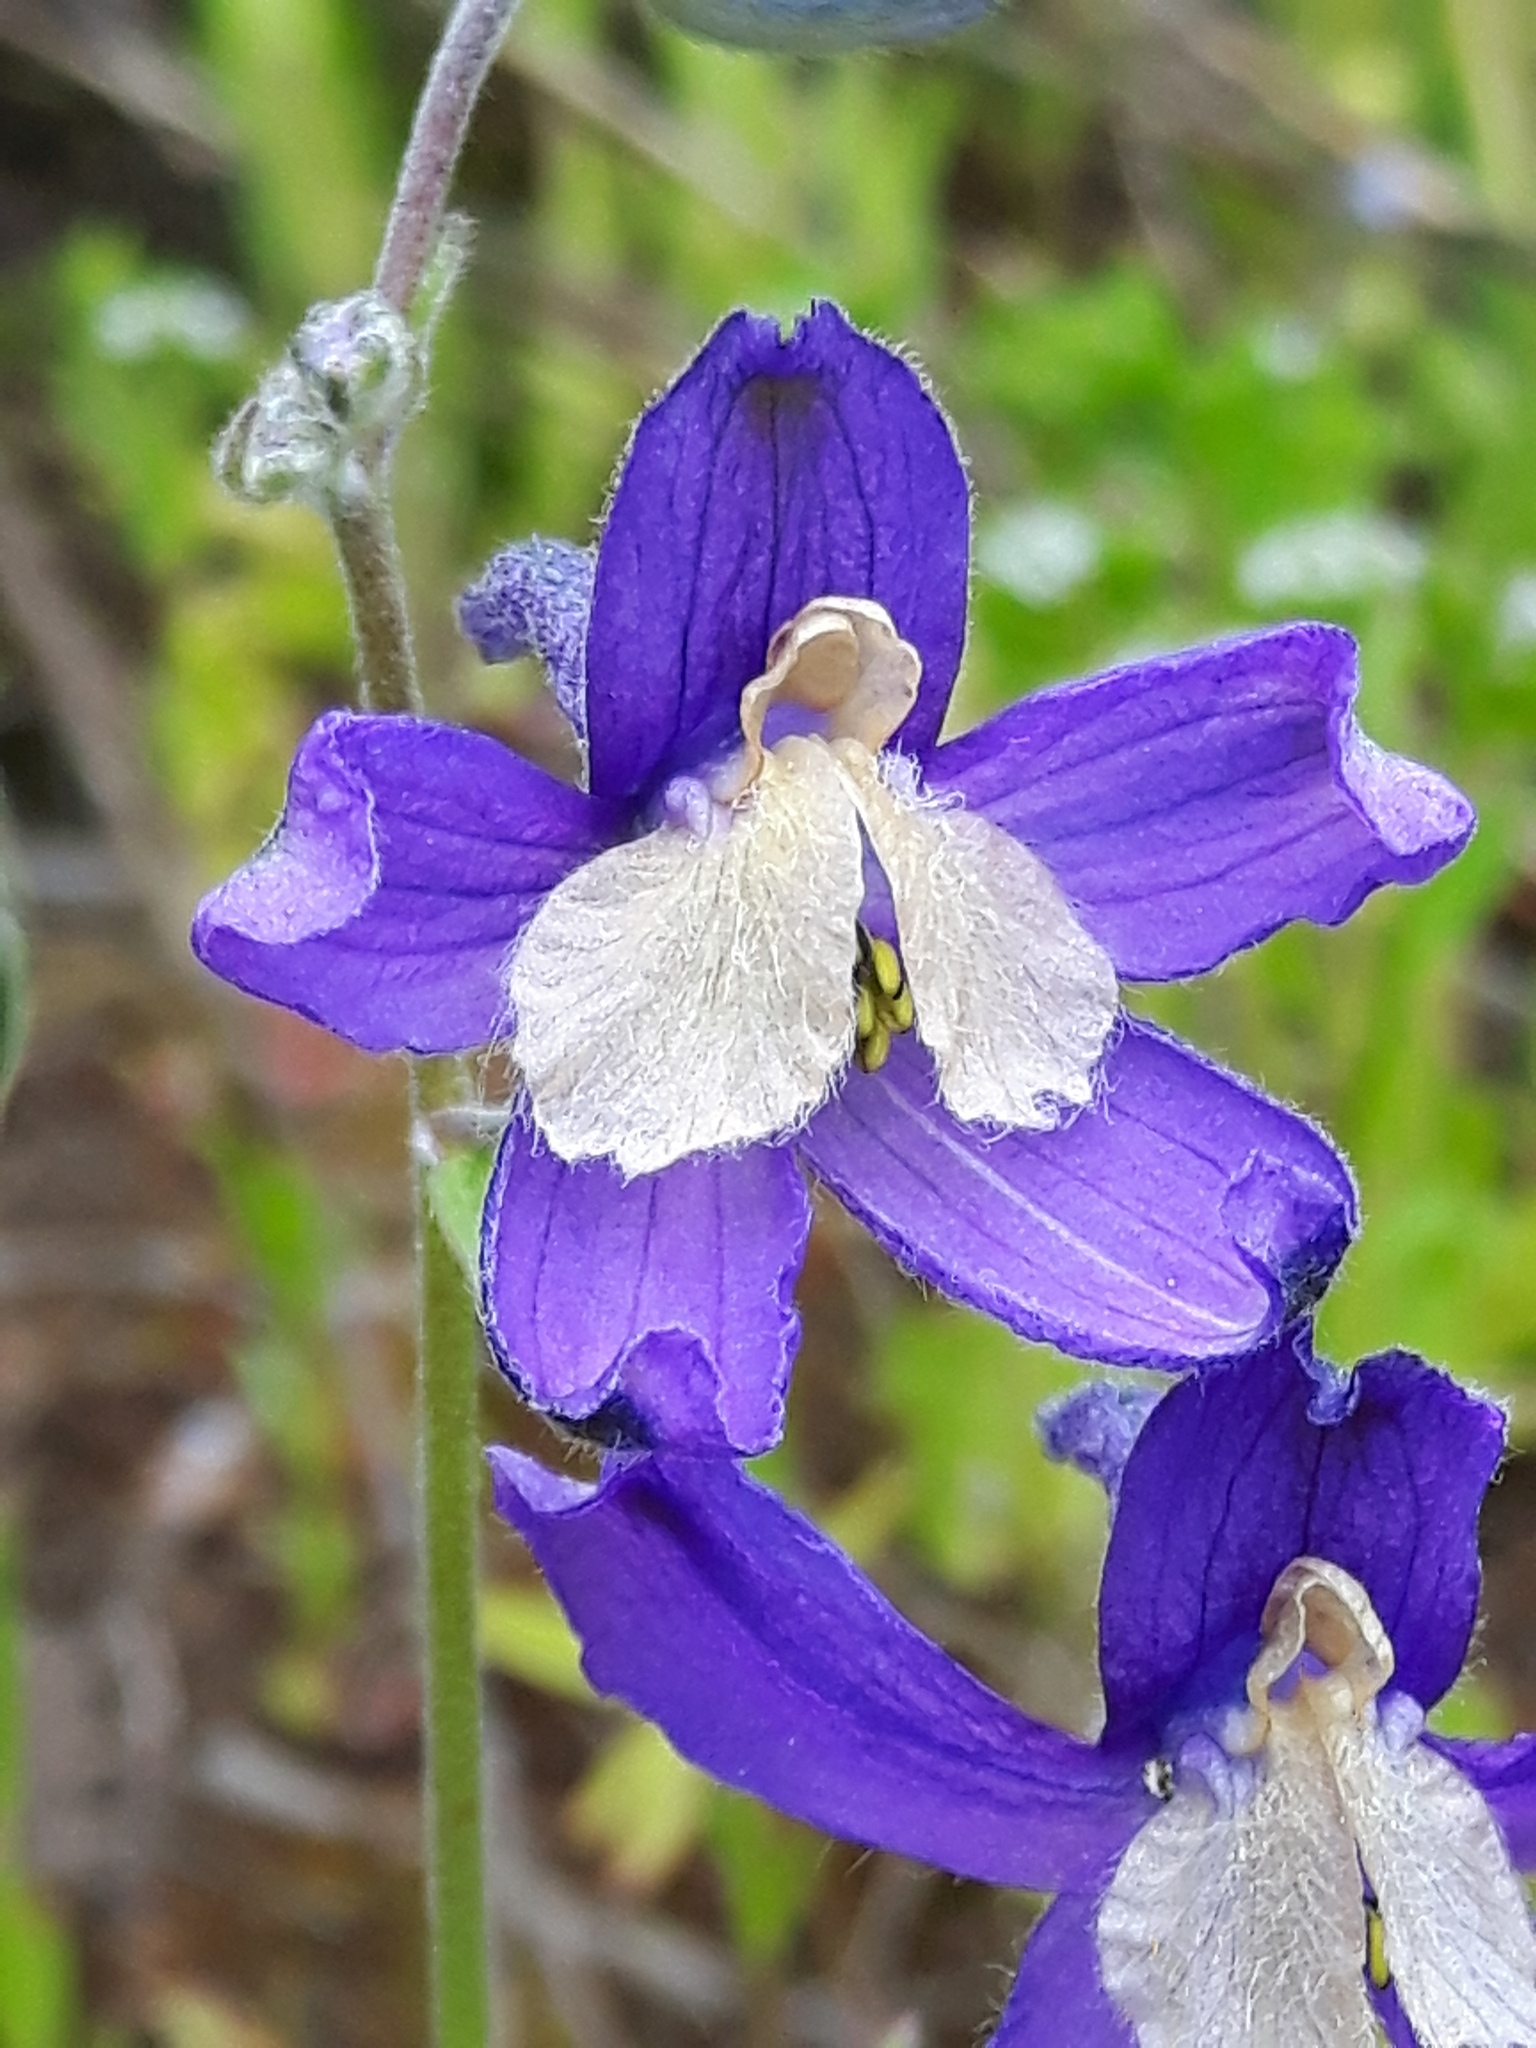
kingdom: Plantae
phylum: Tracheophyta
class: Magnoliopsida
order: Ranunculales
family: Ranunculaceae
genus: Delphinium
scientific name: Delphinium sutherlandii
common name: Sutherland's larkspur
